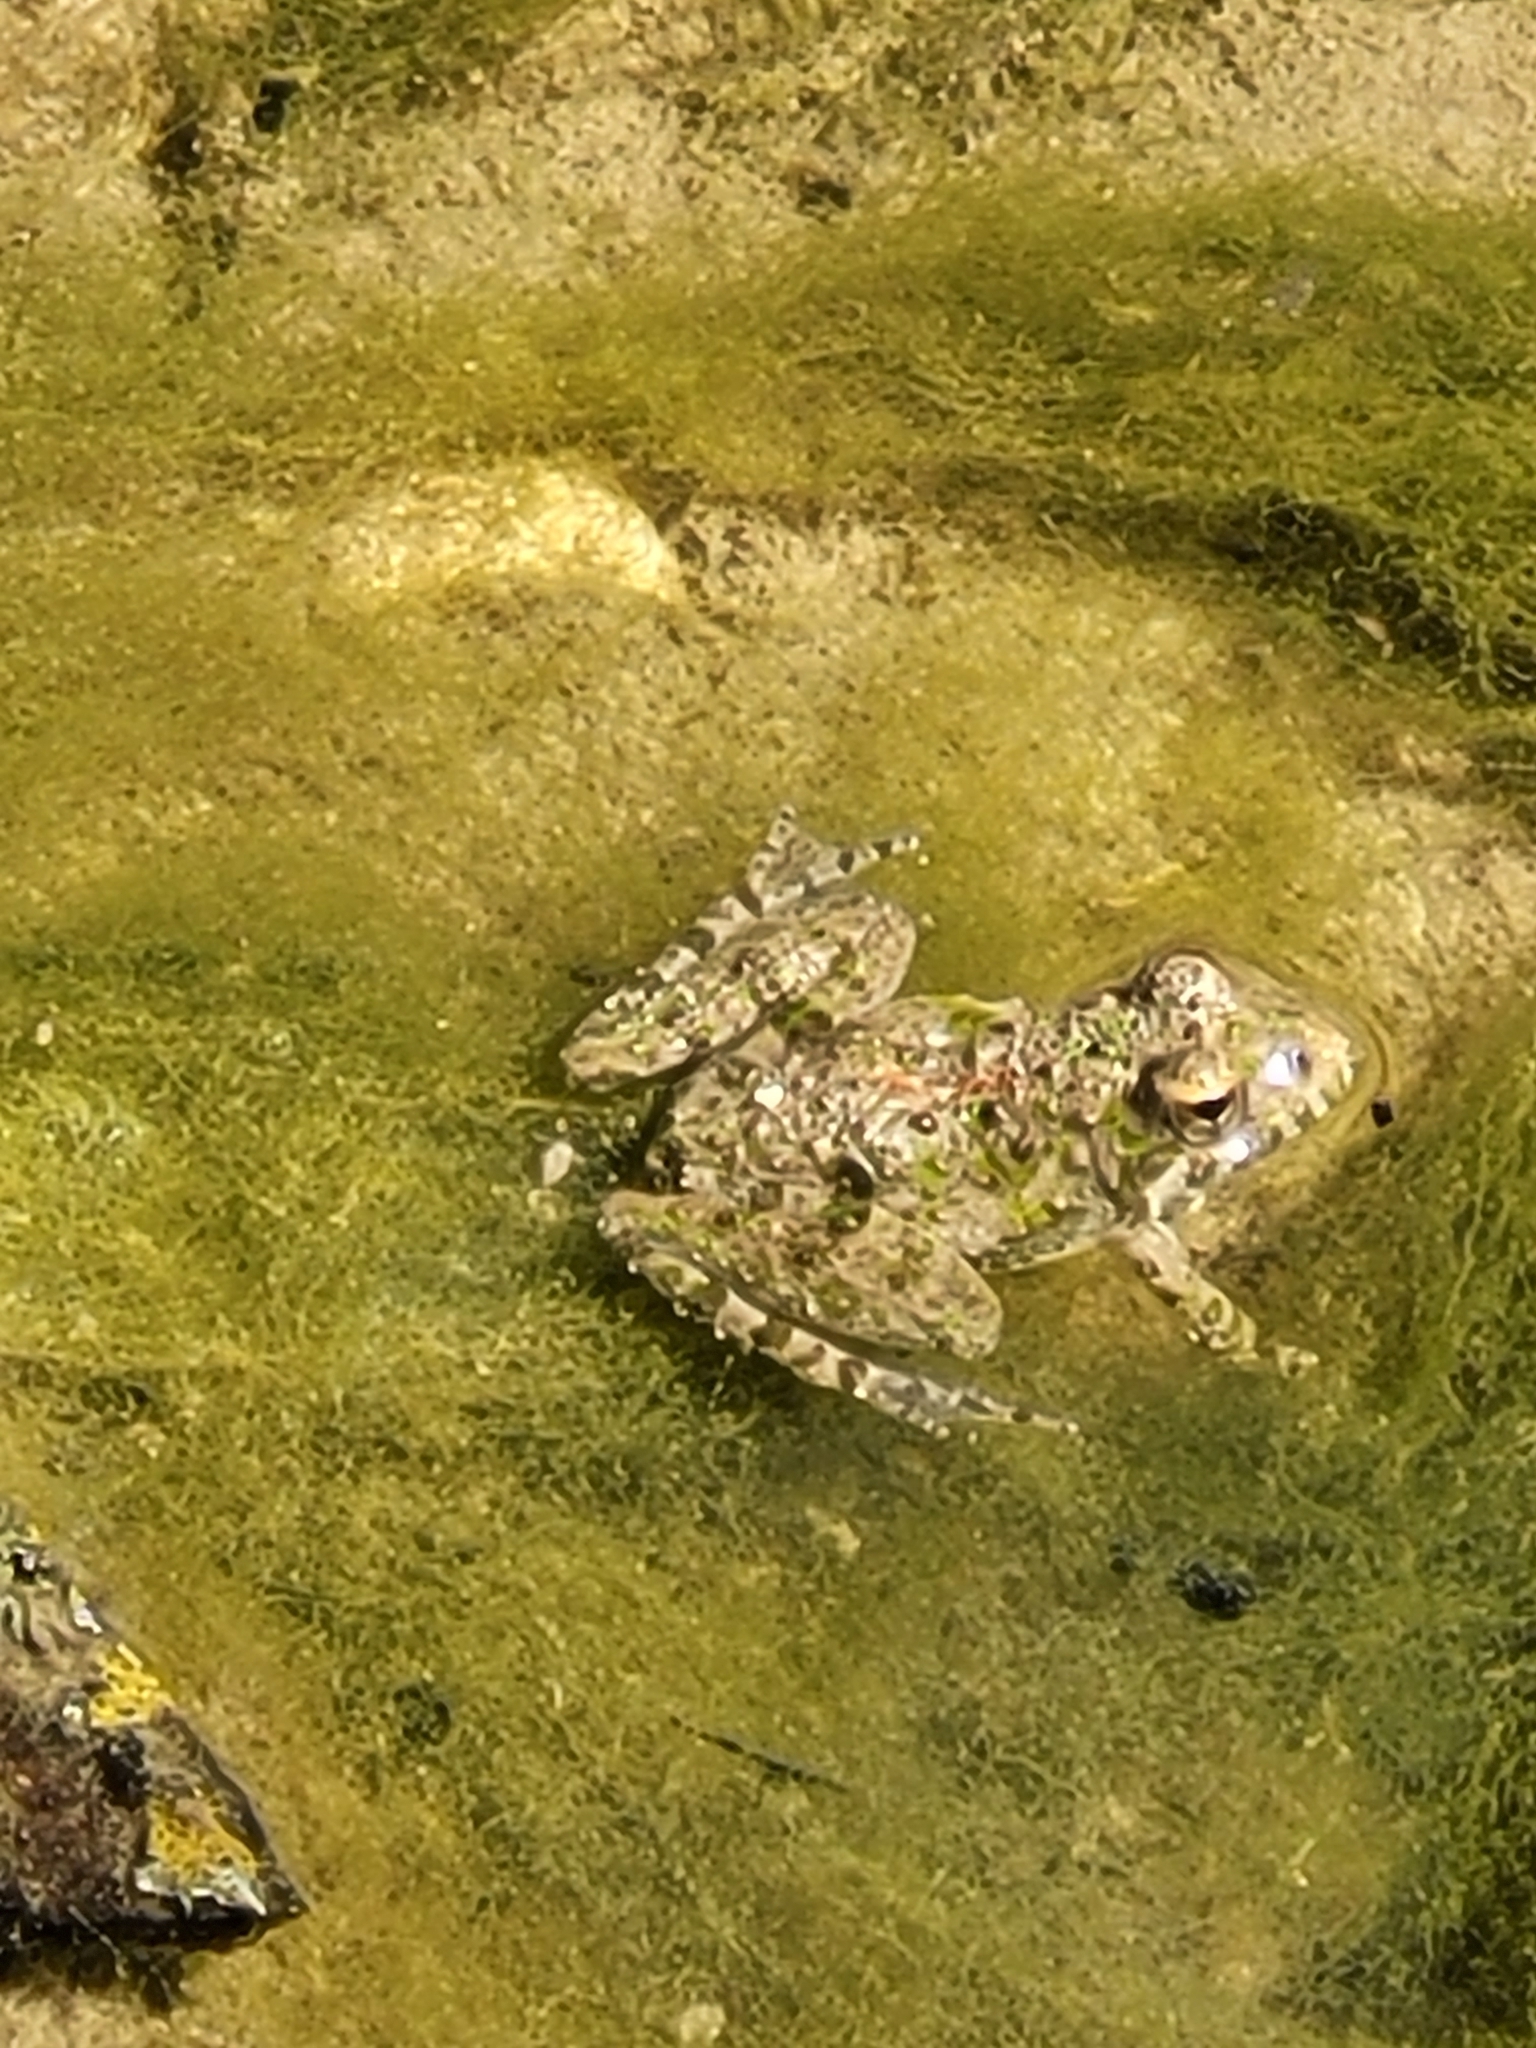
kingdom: Animalia
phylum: Chordata
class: Amphibia
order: Anura
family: Hylidae
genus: Acris
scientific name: Acris blanchardi
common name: Blanchard's cricket frog
